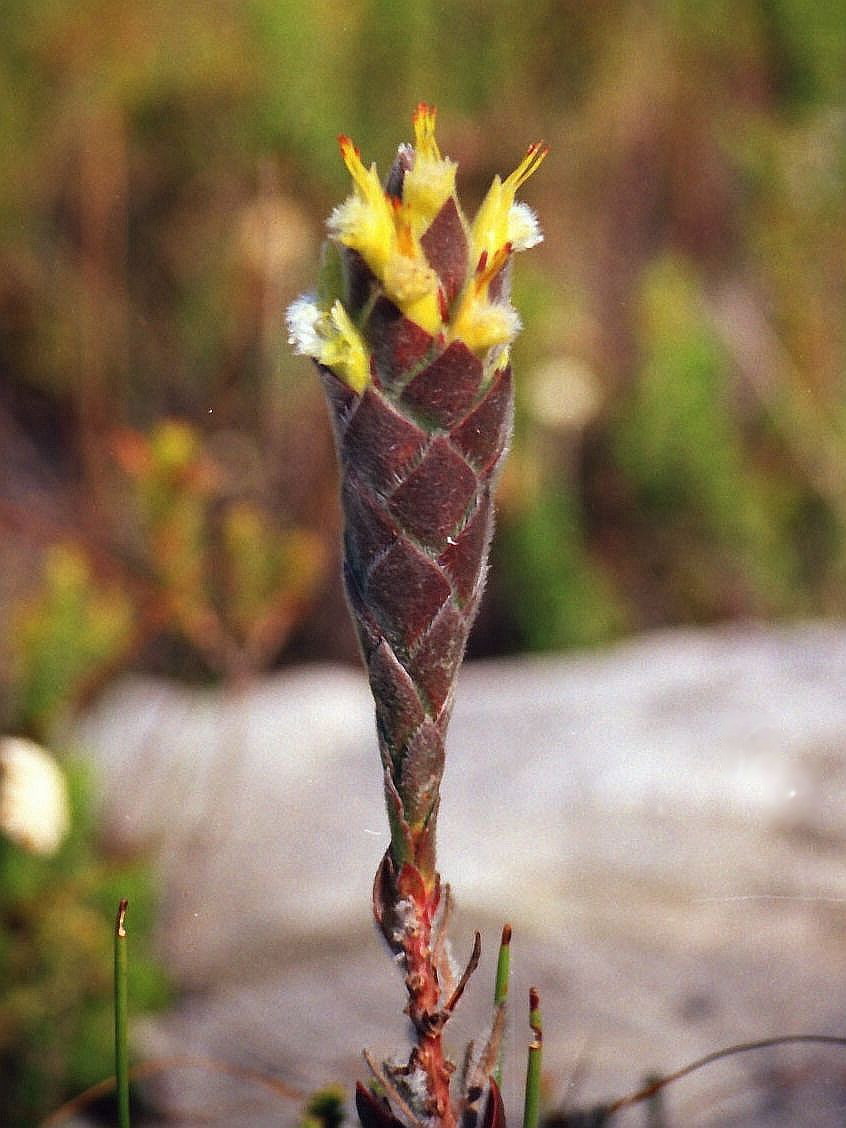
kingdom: Plantae
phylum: Tracheophyta
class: Magnoliopsida
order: Proteales
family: Proteaceae
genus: Mimetes
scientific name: Mimetes palustris
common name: Cryptic pagoda
